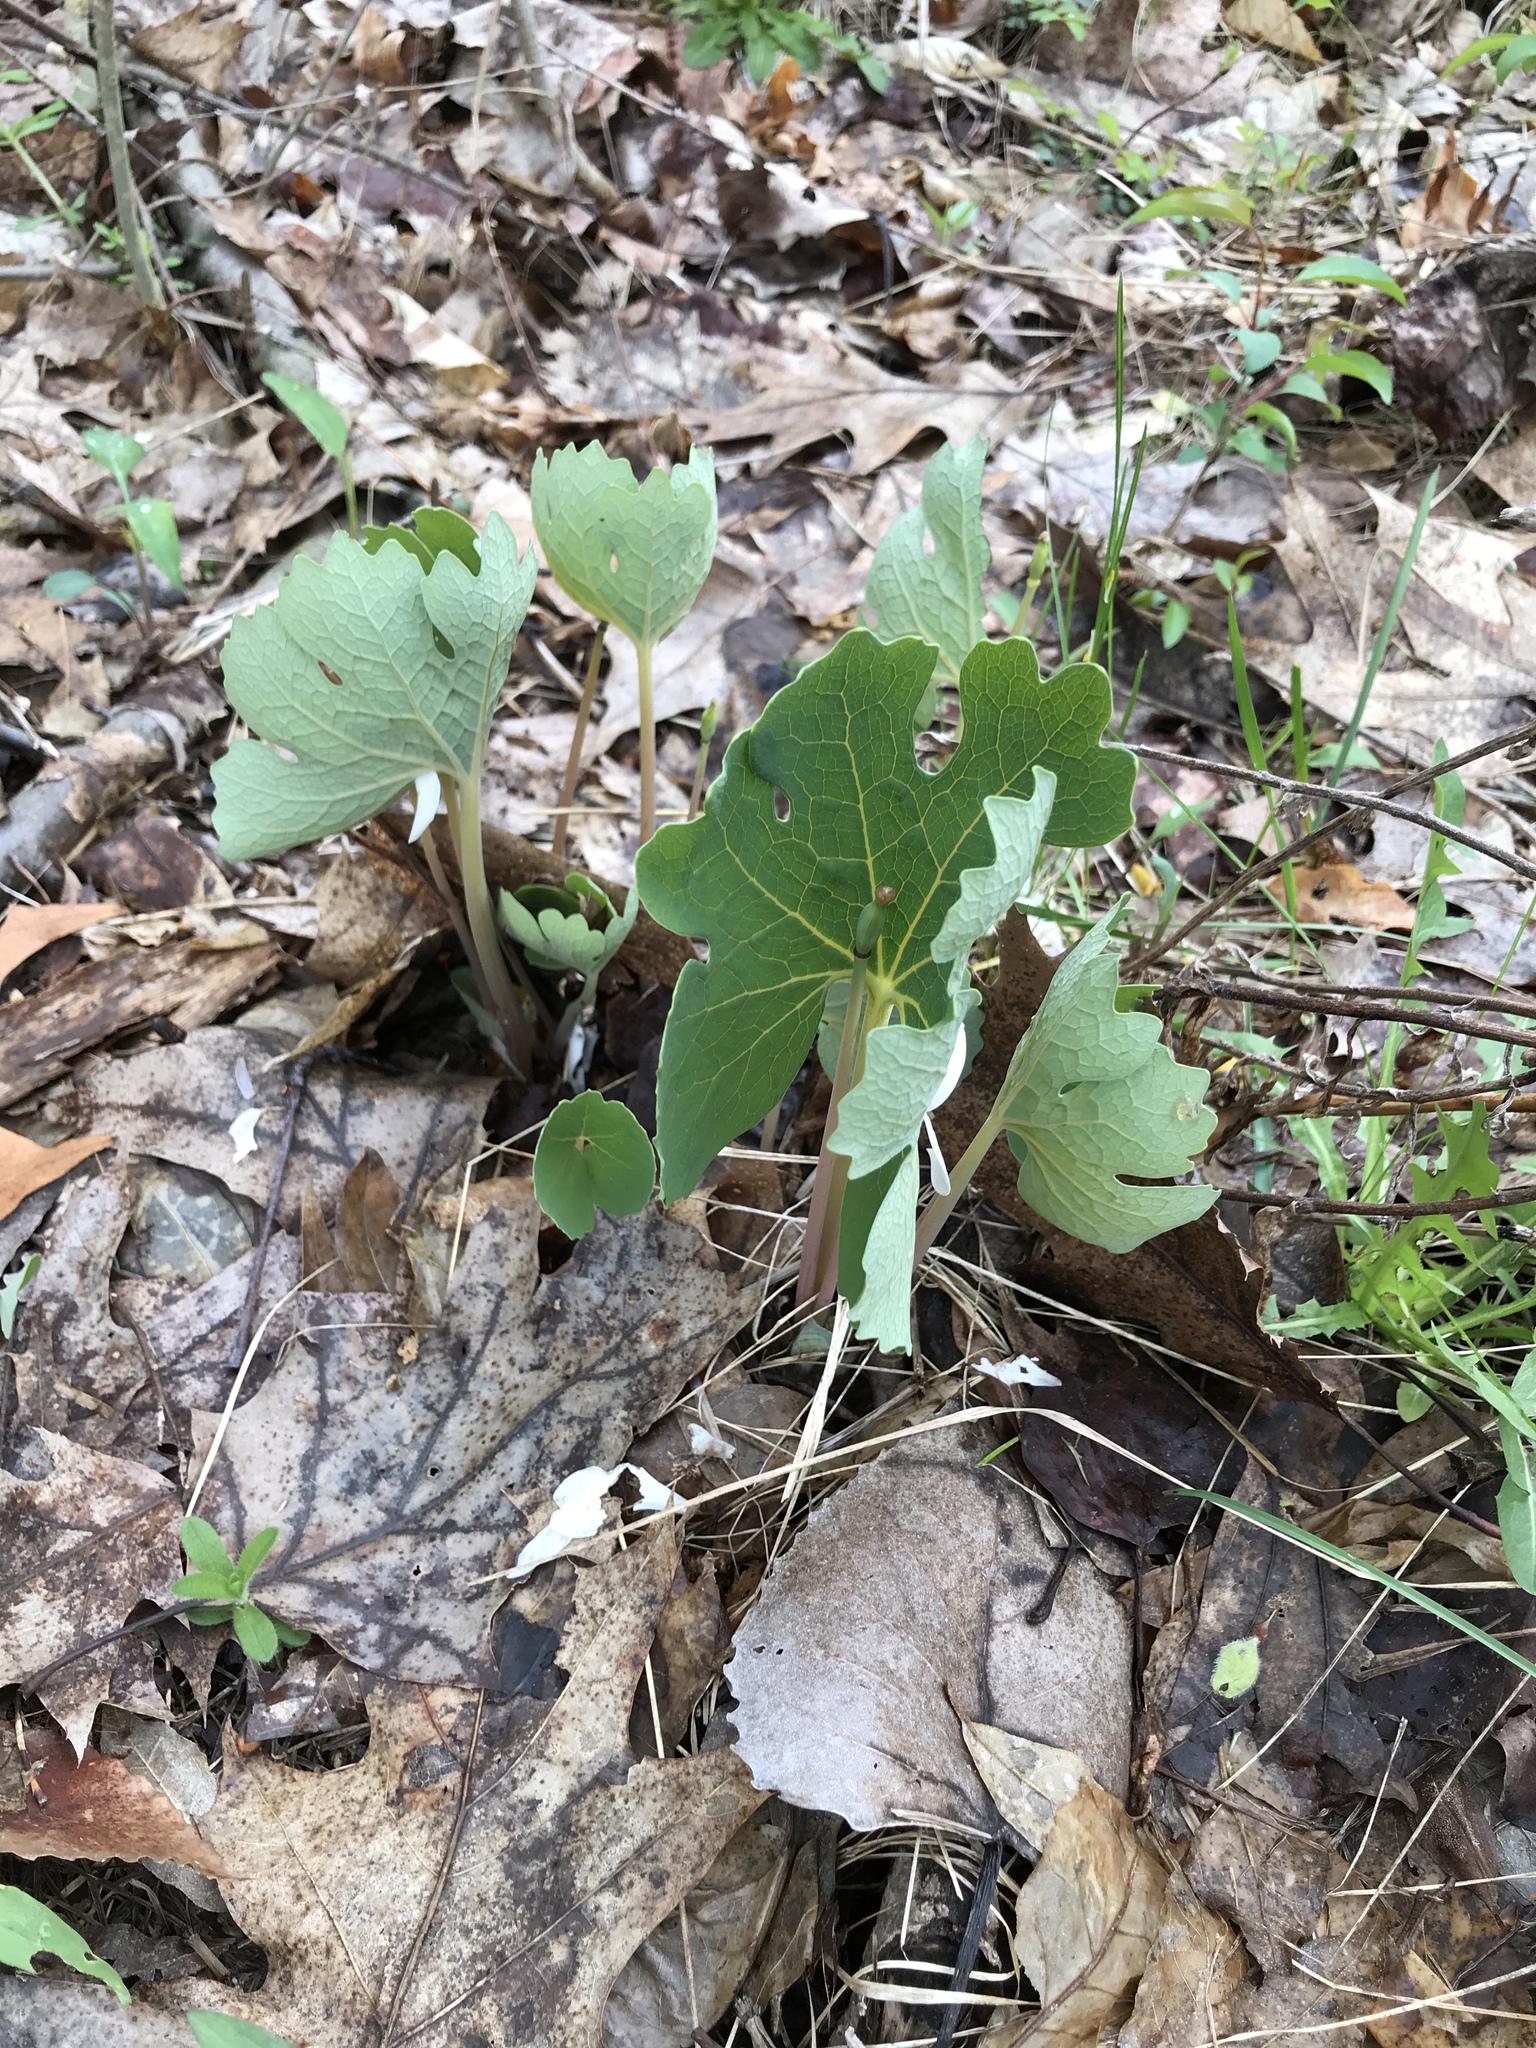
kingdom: Plantae
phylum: Tracheophyta
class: Magnoliopsida
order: Ranunculales
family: Papaveraceae
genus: Sanguinaria
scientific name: Sanguinaria canadensis
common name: Bloodroot
